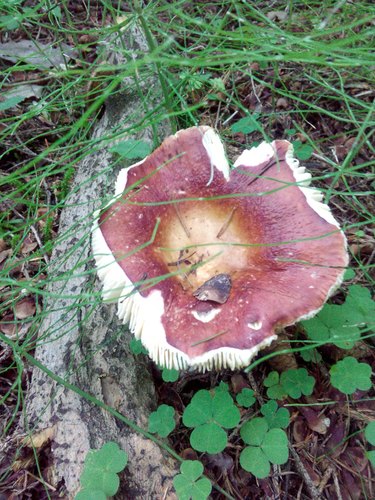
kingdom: Fungi
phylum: Basidiomycota
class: Agaricomycetes
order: Russulales
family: Russulaceae
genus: Russula
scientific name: Russula
